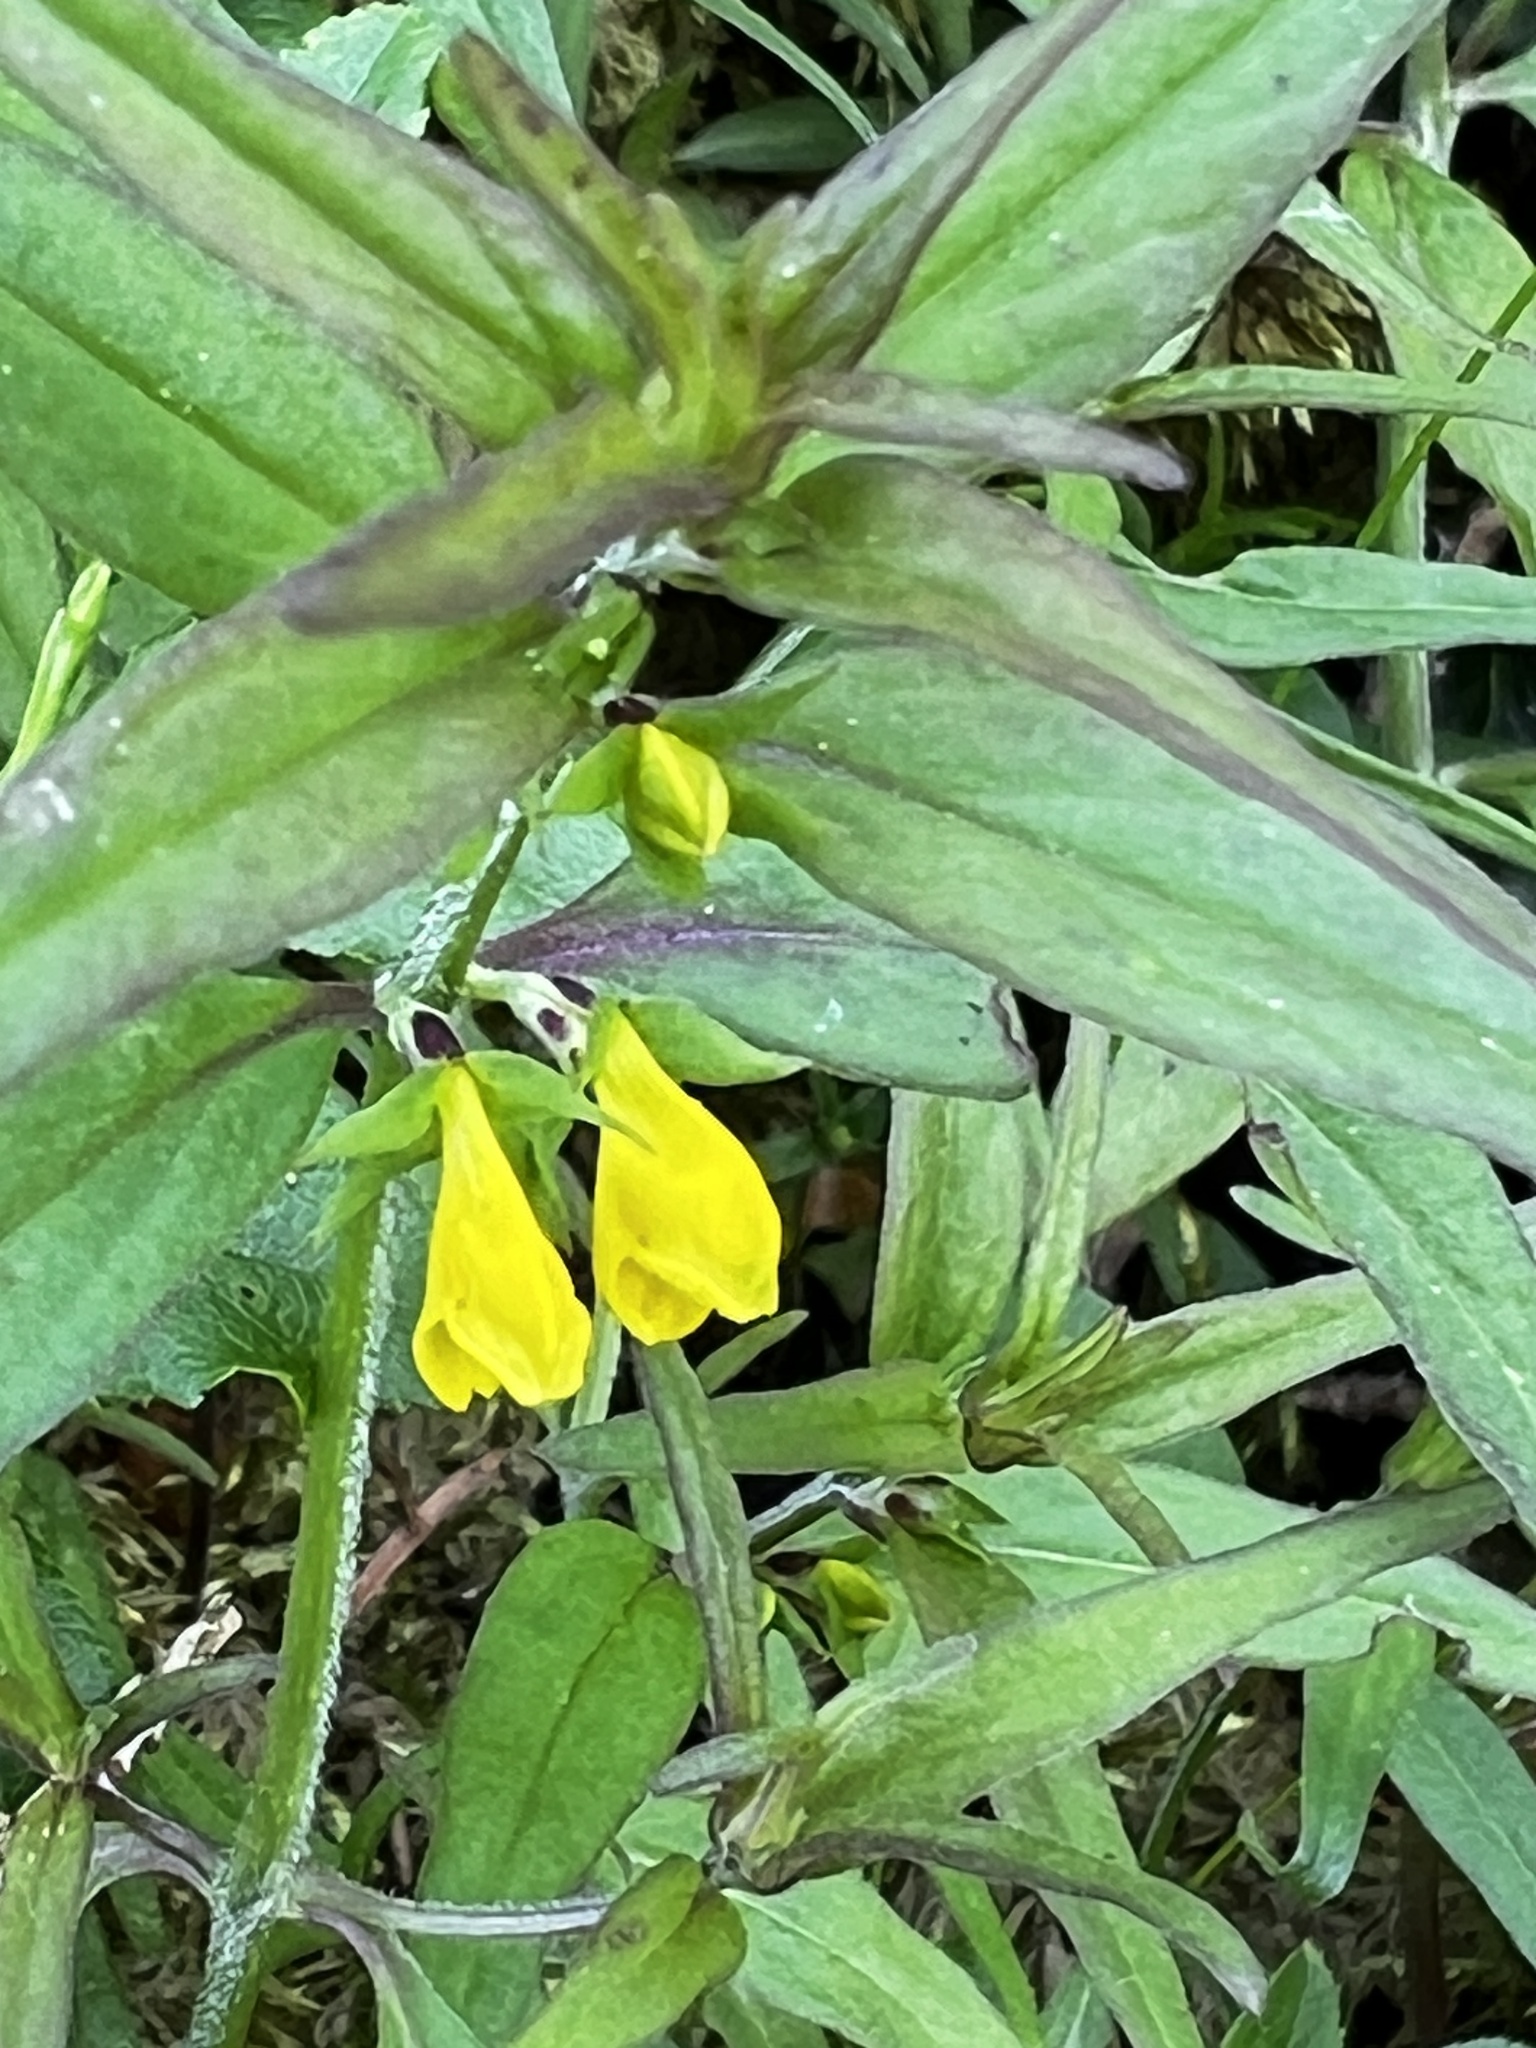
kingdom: Plantae
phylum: Tracheophyta
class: Magnoliopsida
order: Lamiales
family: Orobanchaceae
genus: Melampyrum
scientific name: Melampyrum sylvaticum
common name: Small cow-wheat
